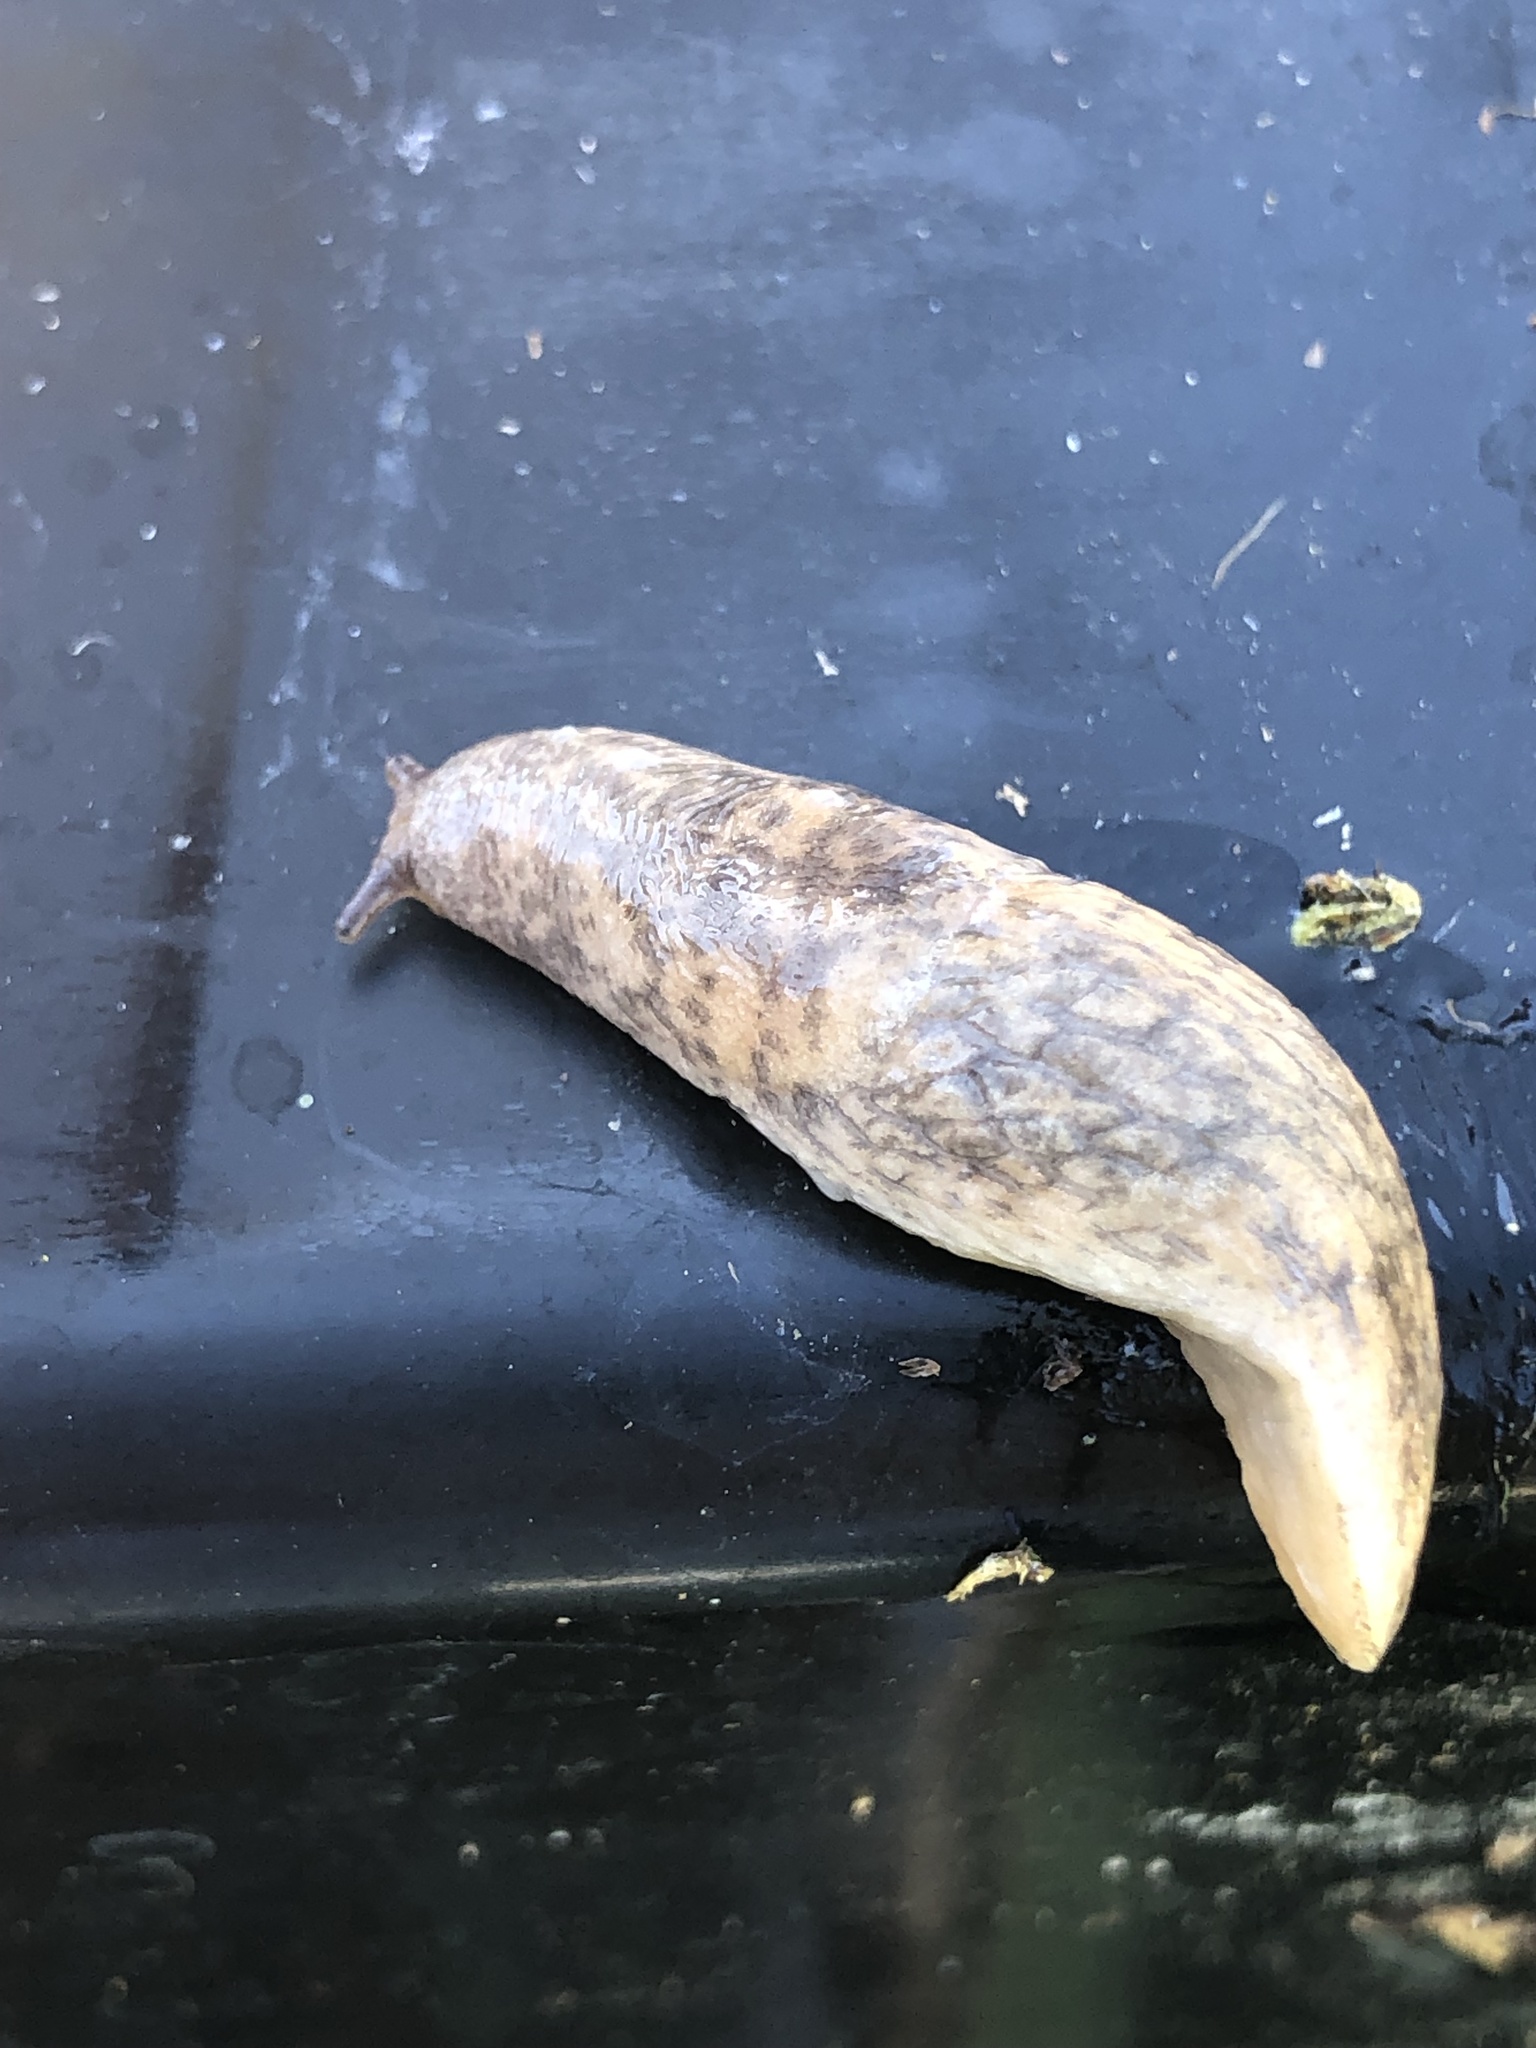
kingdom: Animalia
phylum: Mollusca
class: Gastropoda
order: Stylommatophora
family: Agriolimacidae
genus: Deroceras
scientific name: Deroceras reticulatum
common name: Gray field slug
